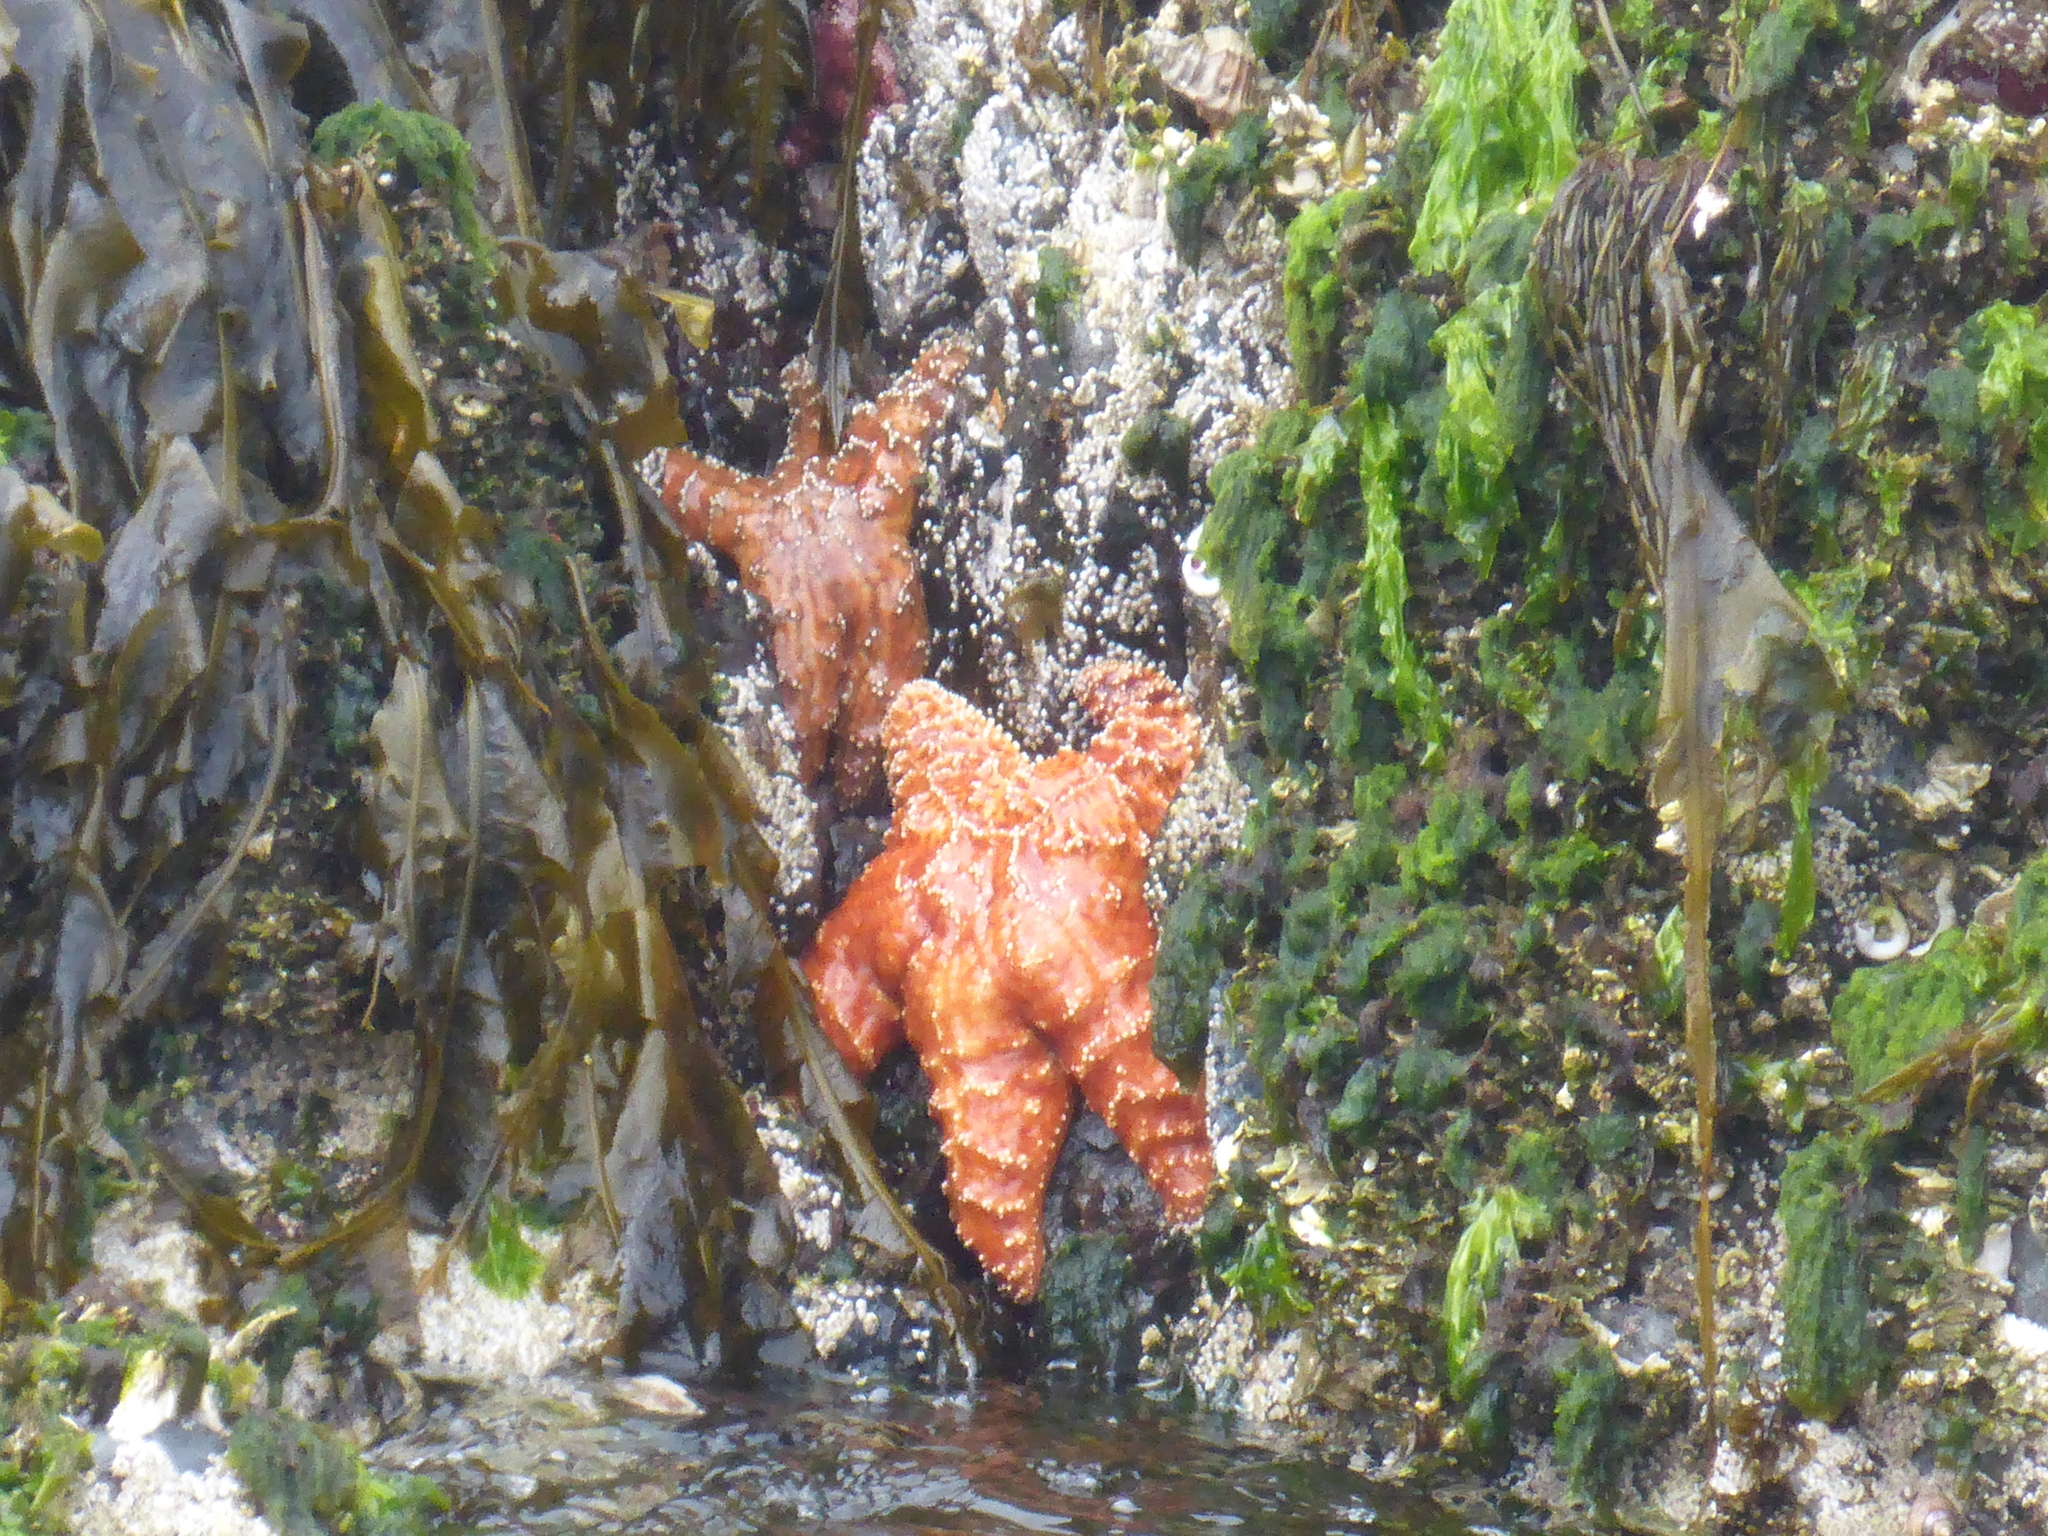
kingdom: Animalia
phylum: Echinodermata
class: Asteroidea
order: Forcipulatida
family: Asteriidae
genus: Pisaster
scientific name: Pisaster ochraceus
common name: Ochre stars
